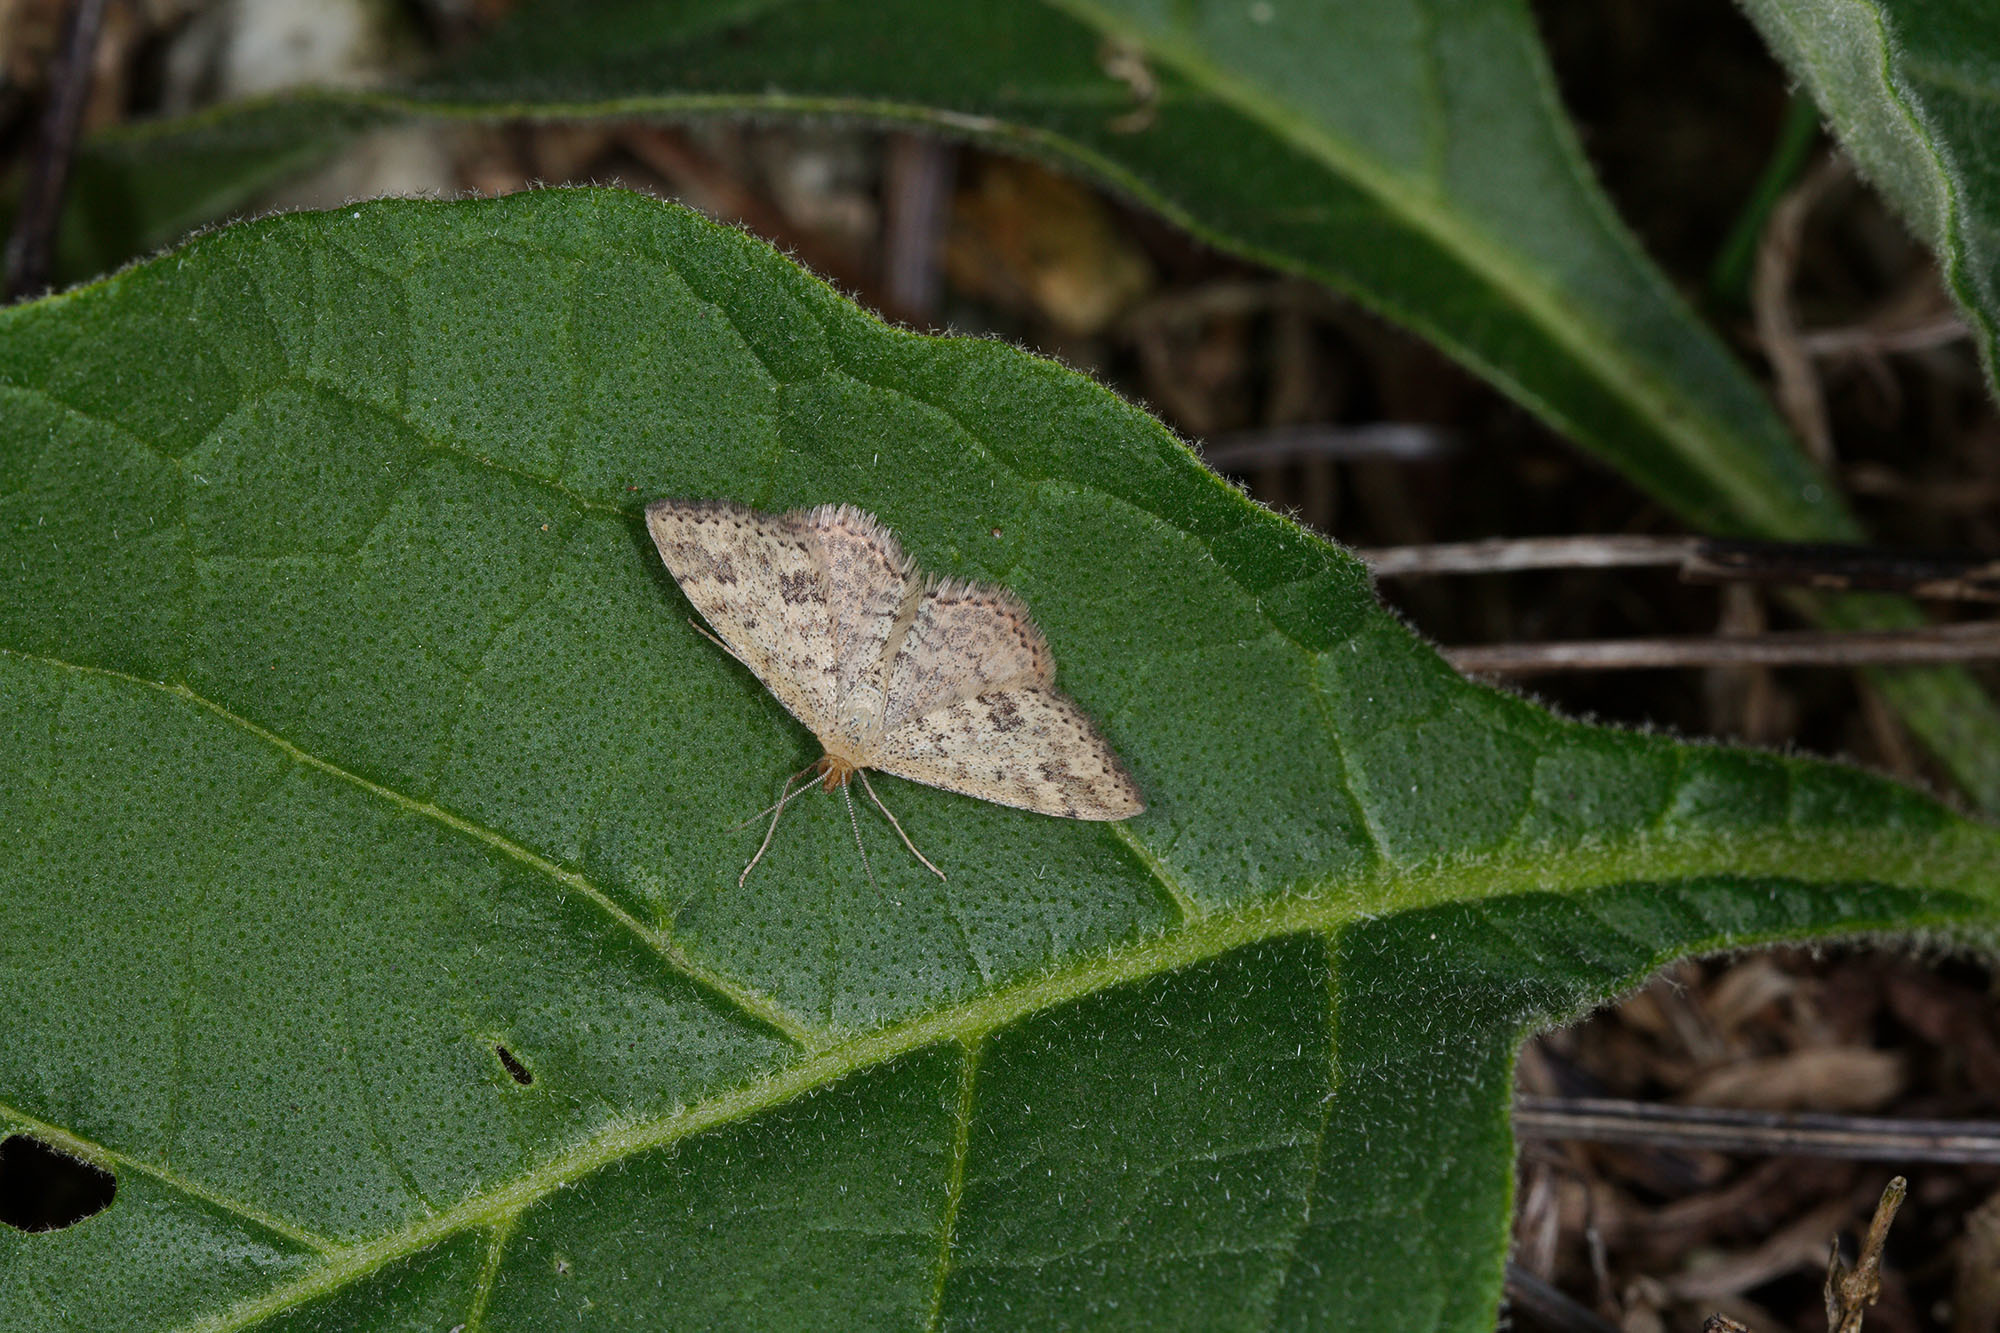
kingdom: Animalia
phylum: Arthropoda
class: Insecta
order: Lepidoptera
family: Geometridae
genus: Scopula
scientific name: Scopula rubraria
